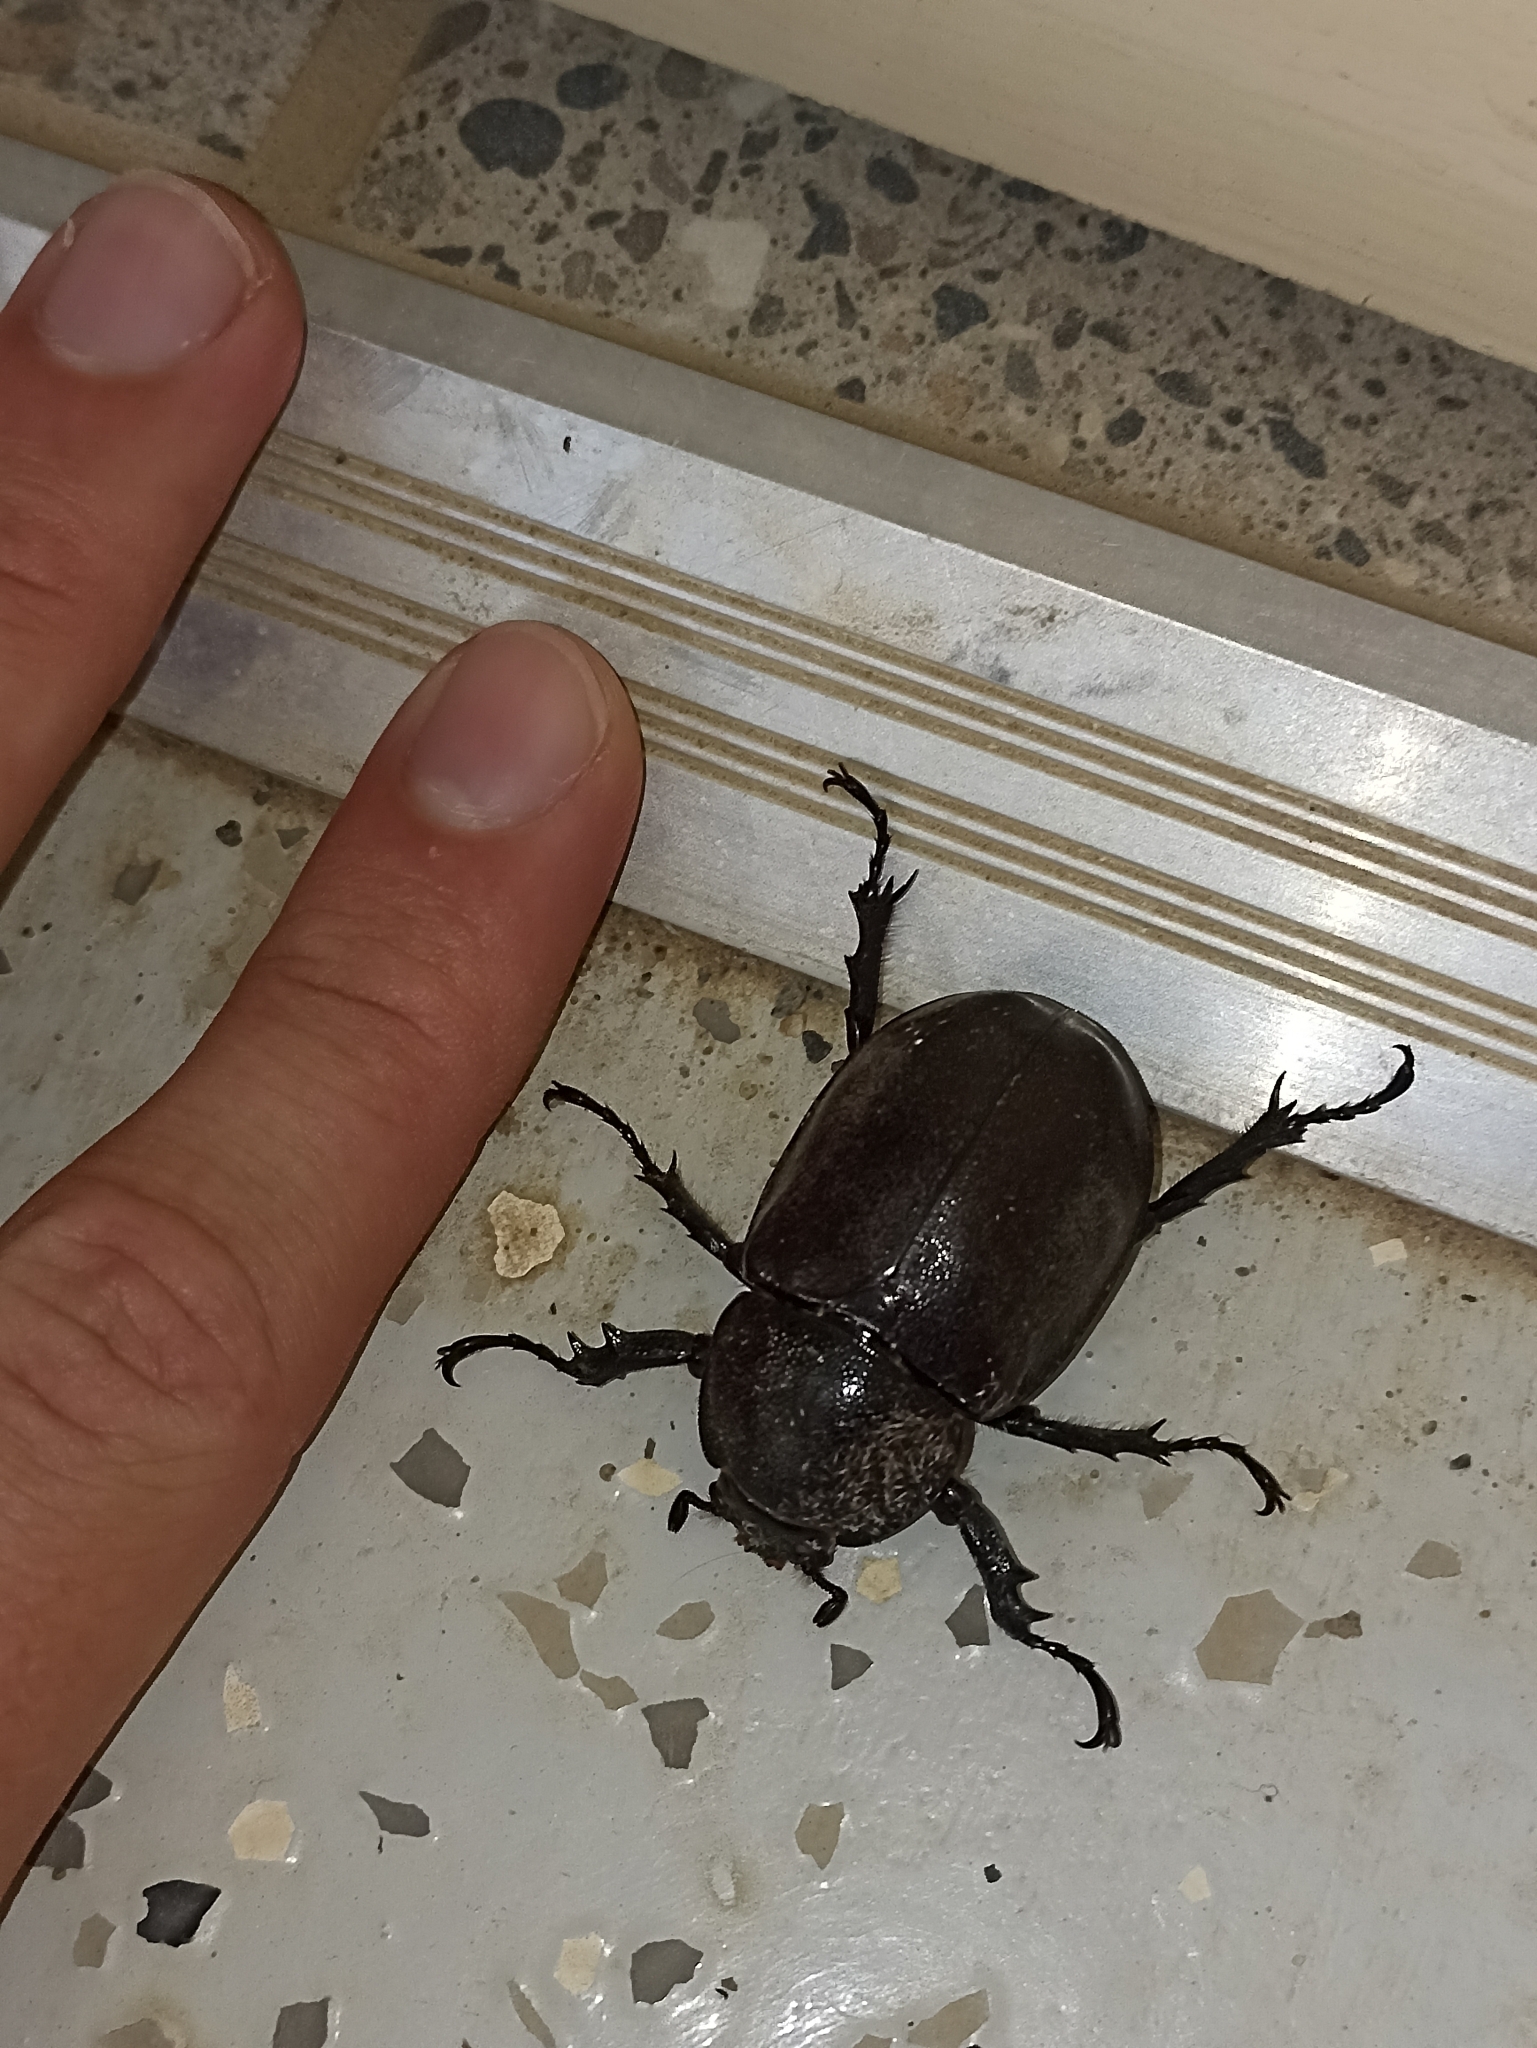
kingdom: Animalia
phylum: Arthropoda
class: Insecta
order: Coleoptera
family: Scarabaeidae
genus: Xylotrupes
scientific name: Xylotrupes australicus
